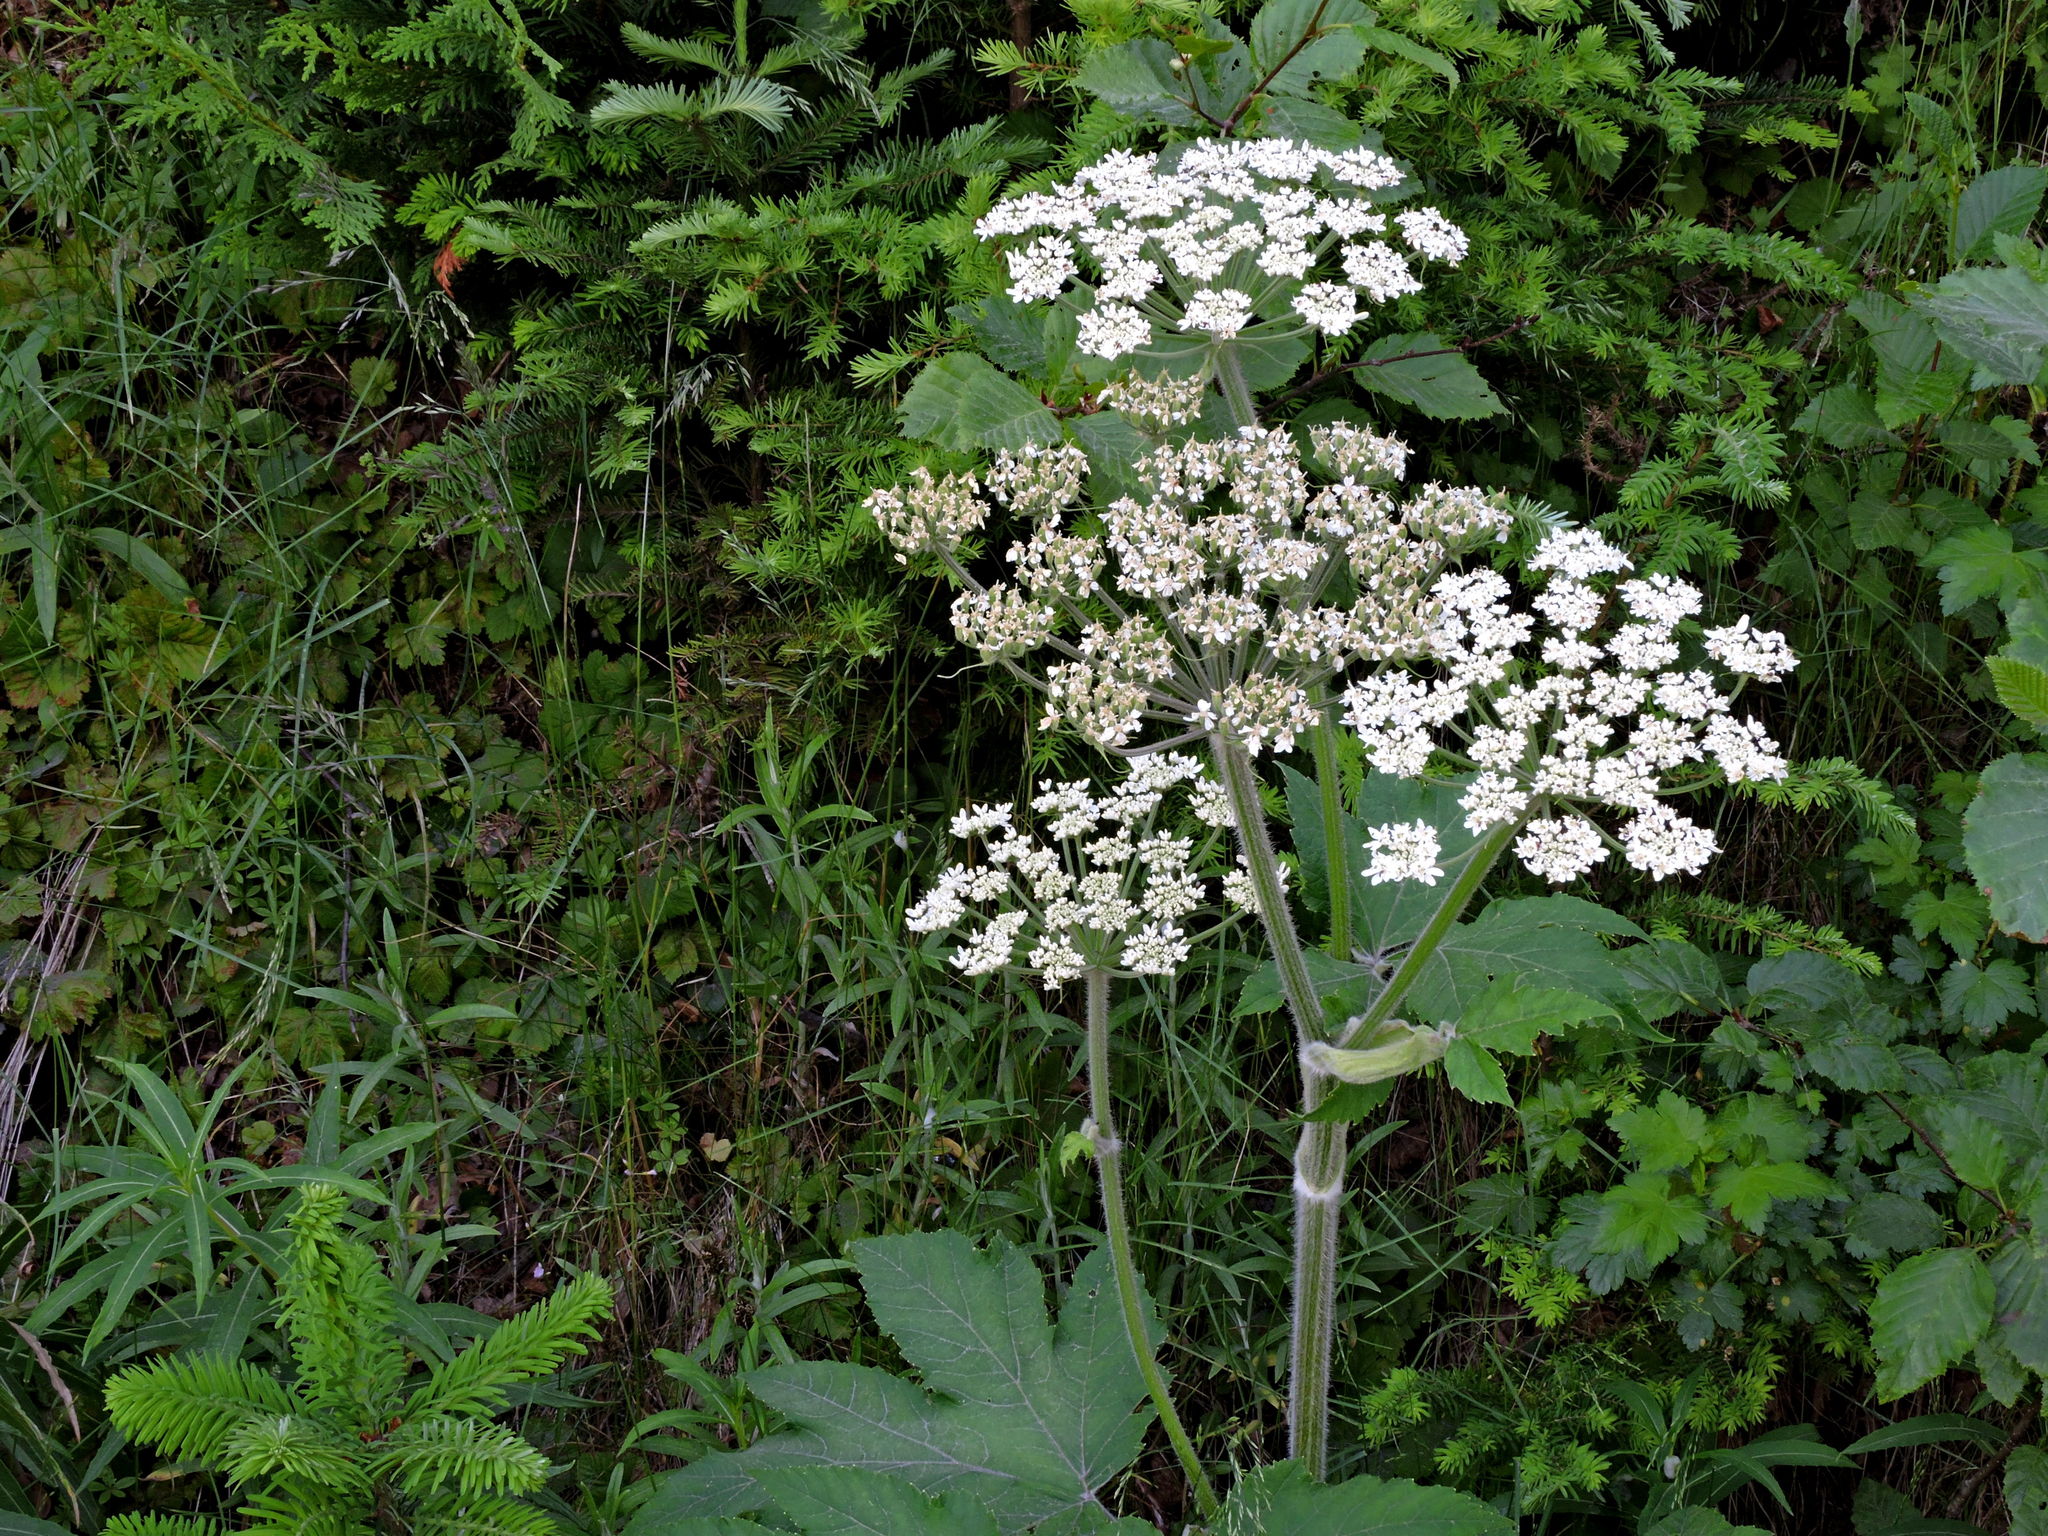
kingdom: Plantae
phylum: Tracheophyta
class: Magnoliopsida
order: Apiales
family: Apiaceae
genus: Heracleum
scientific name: Heracleum maximum
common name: American cow parsnip
